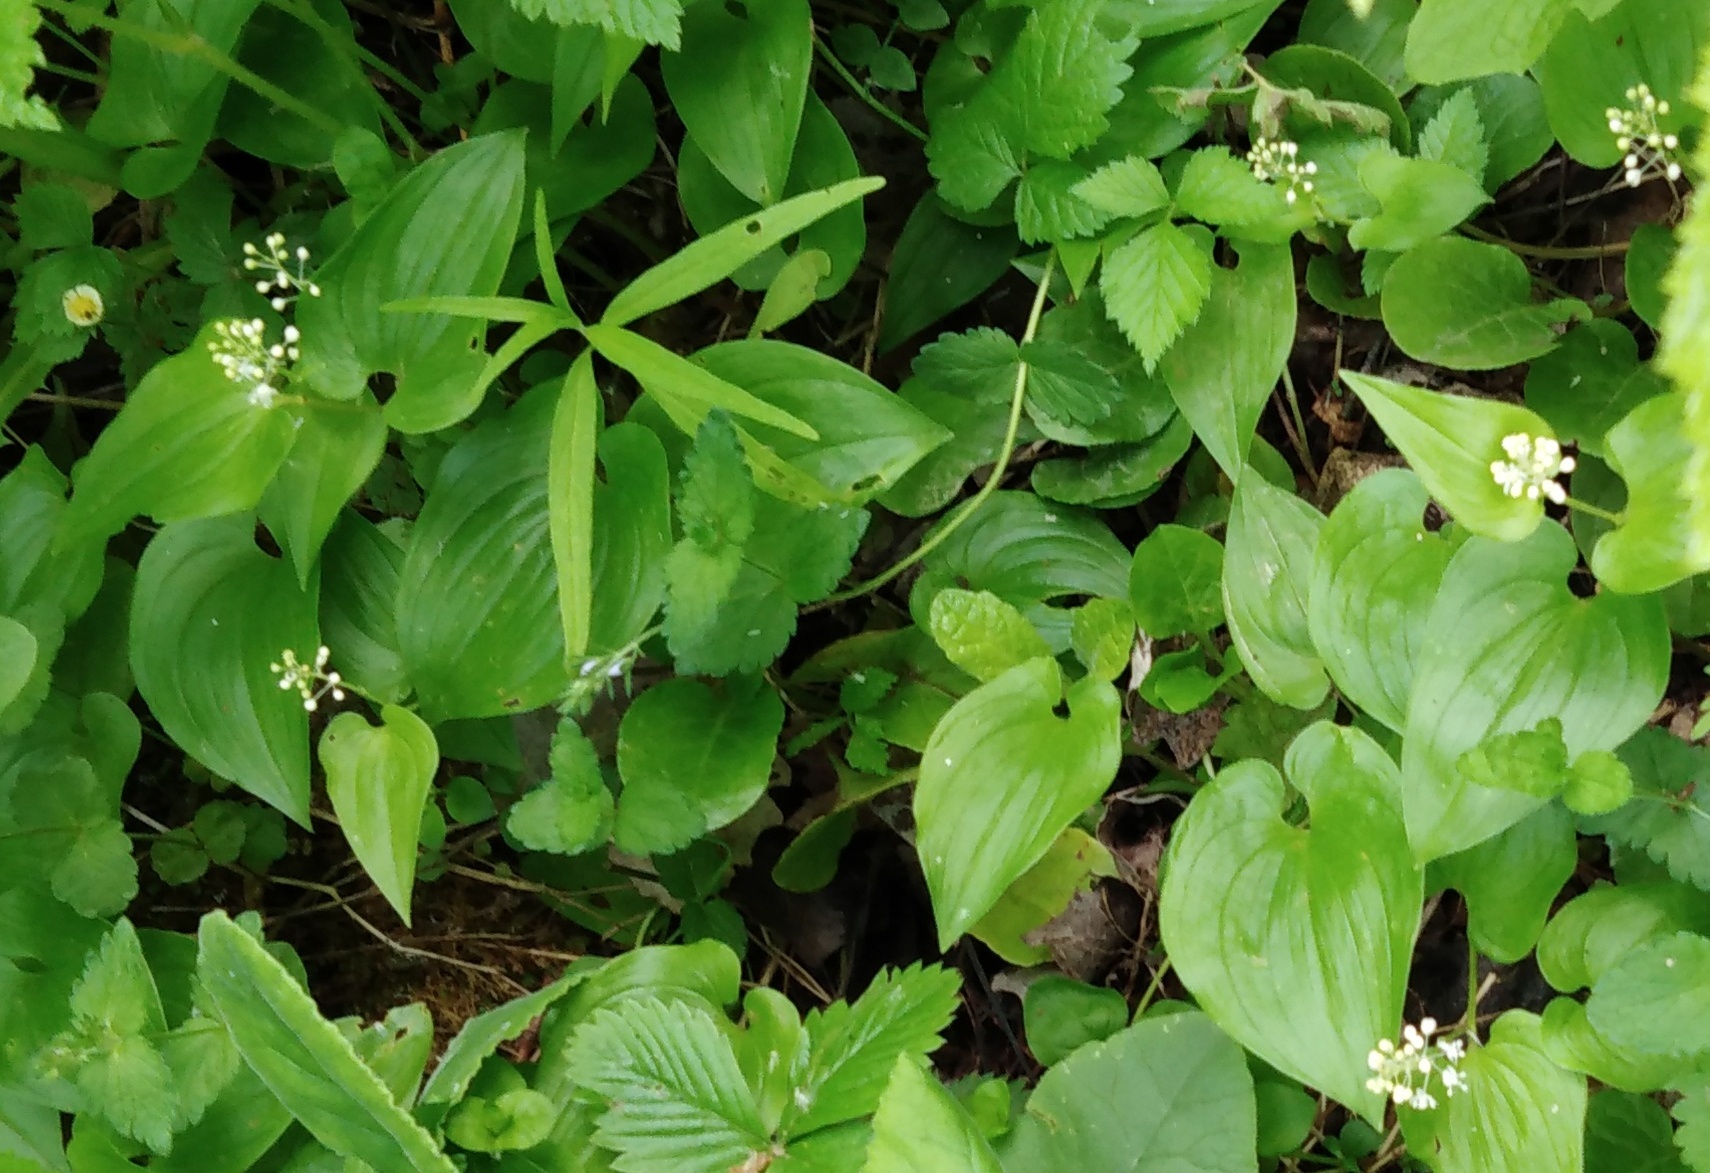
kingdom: Plantae
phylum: Tracheophyta
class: Liliopsida
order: Asparagales
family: Asparagaceae
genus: Maianthemum
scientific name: Maianthemum bifolium
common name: May lily
